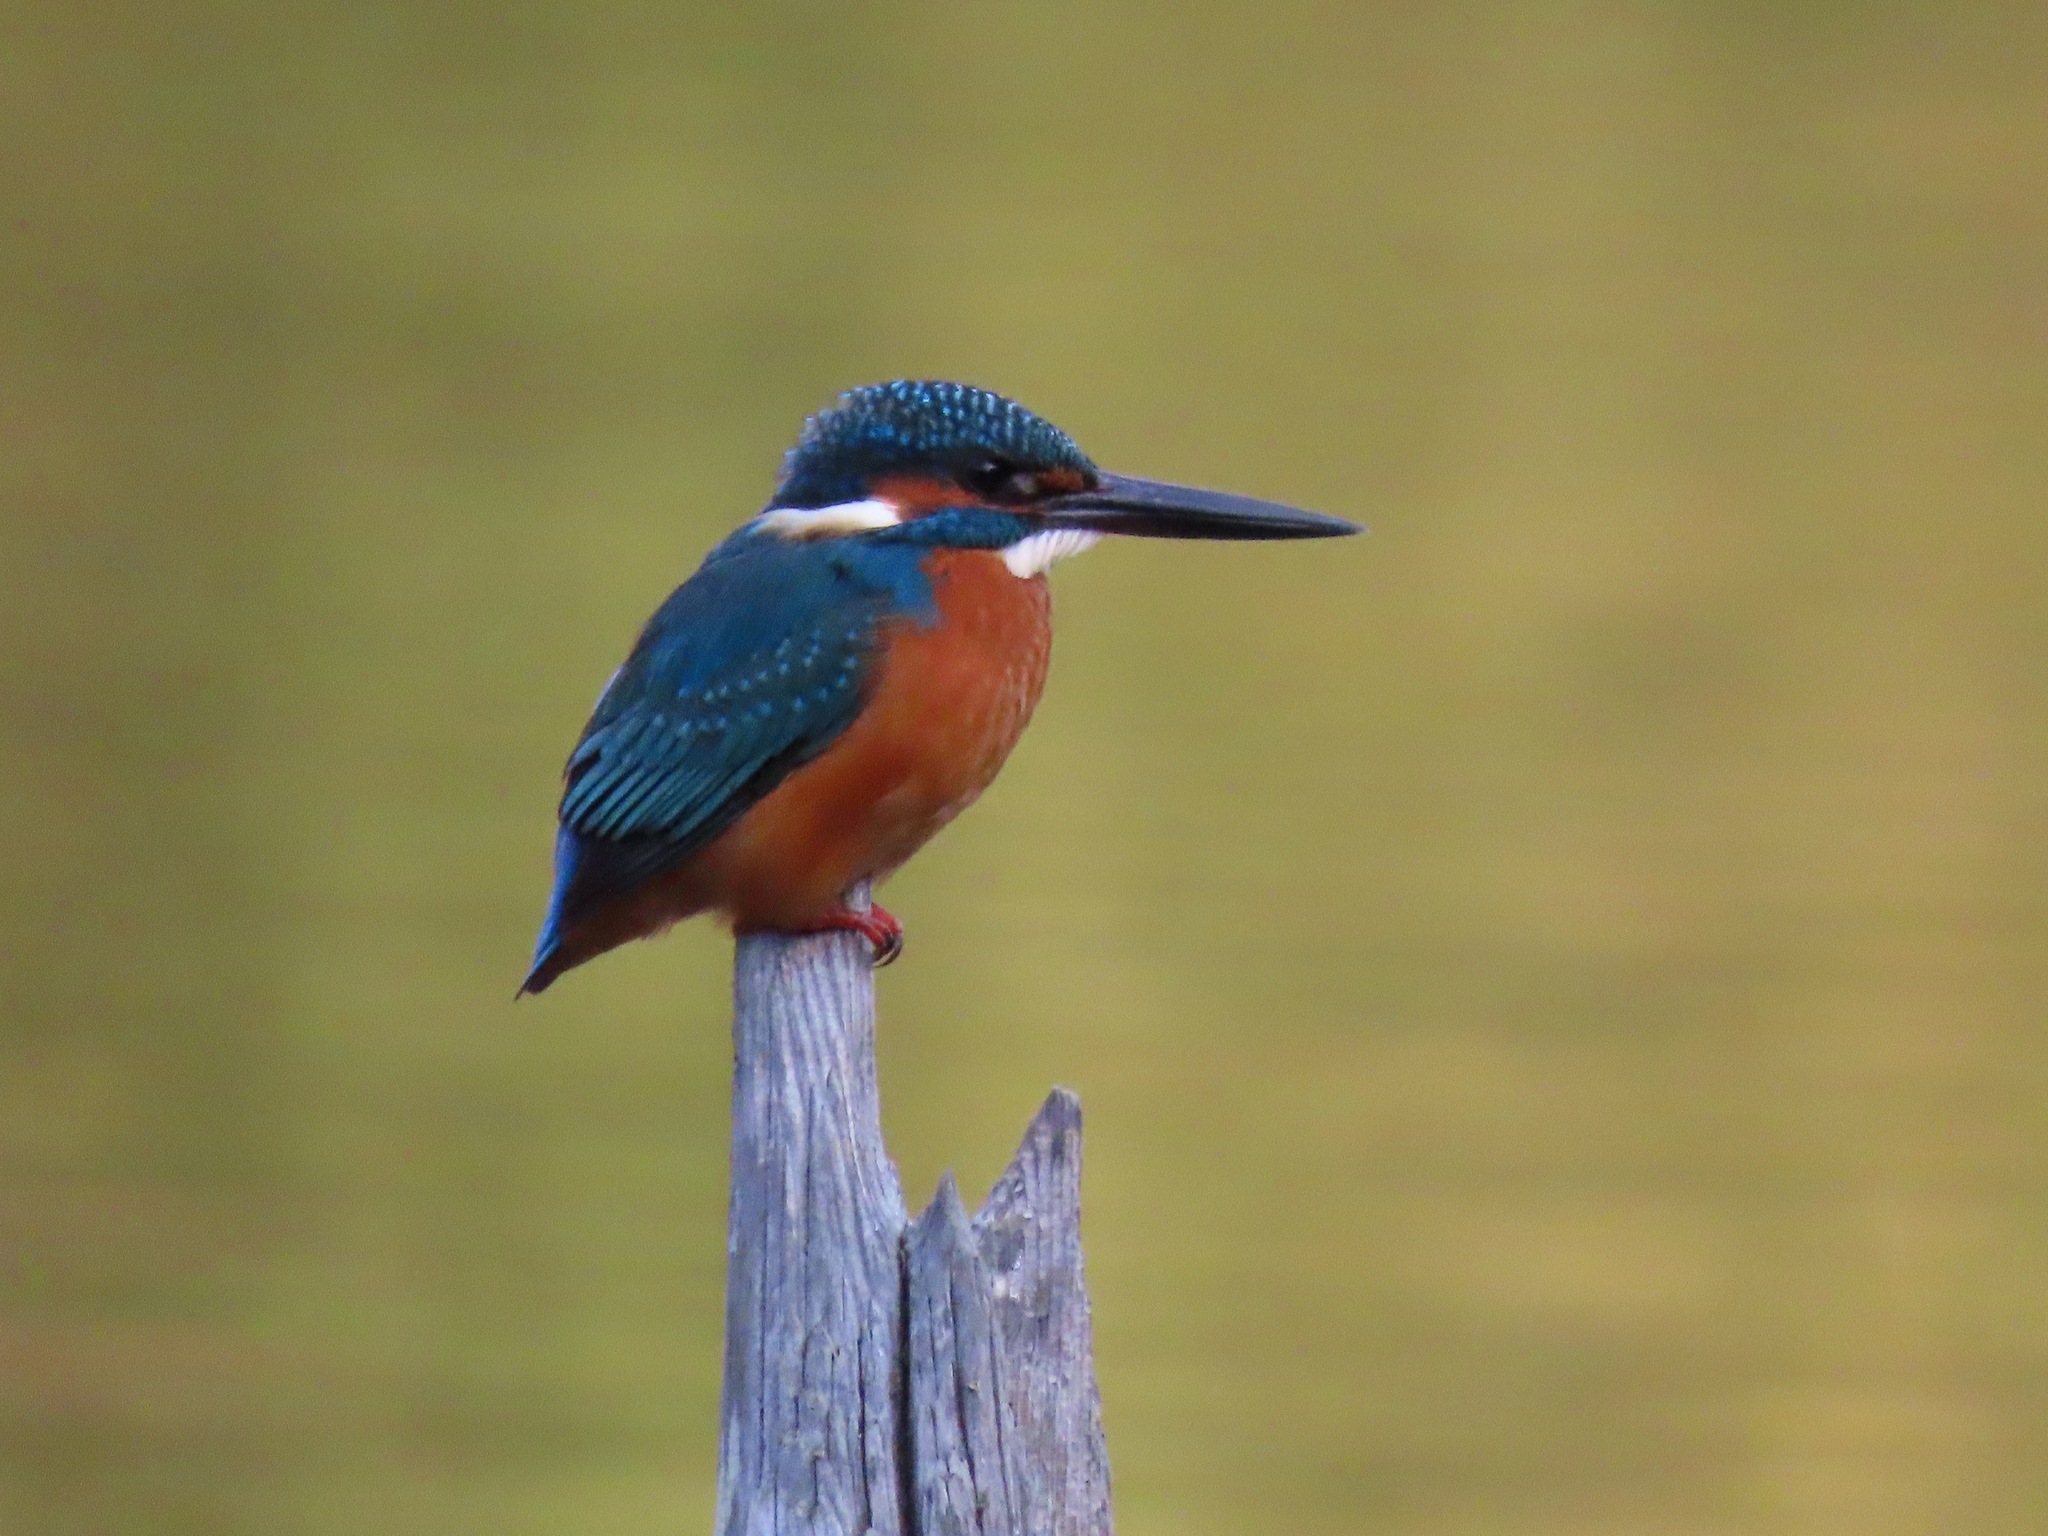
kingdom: Animalia
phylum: Chordata
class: Aves
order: Coraciiformes
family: Alcedinidae
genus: Alcedo
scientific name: Alcedo atthis
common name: Common kingfisher
